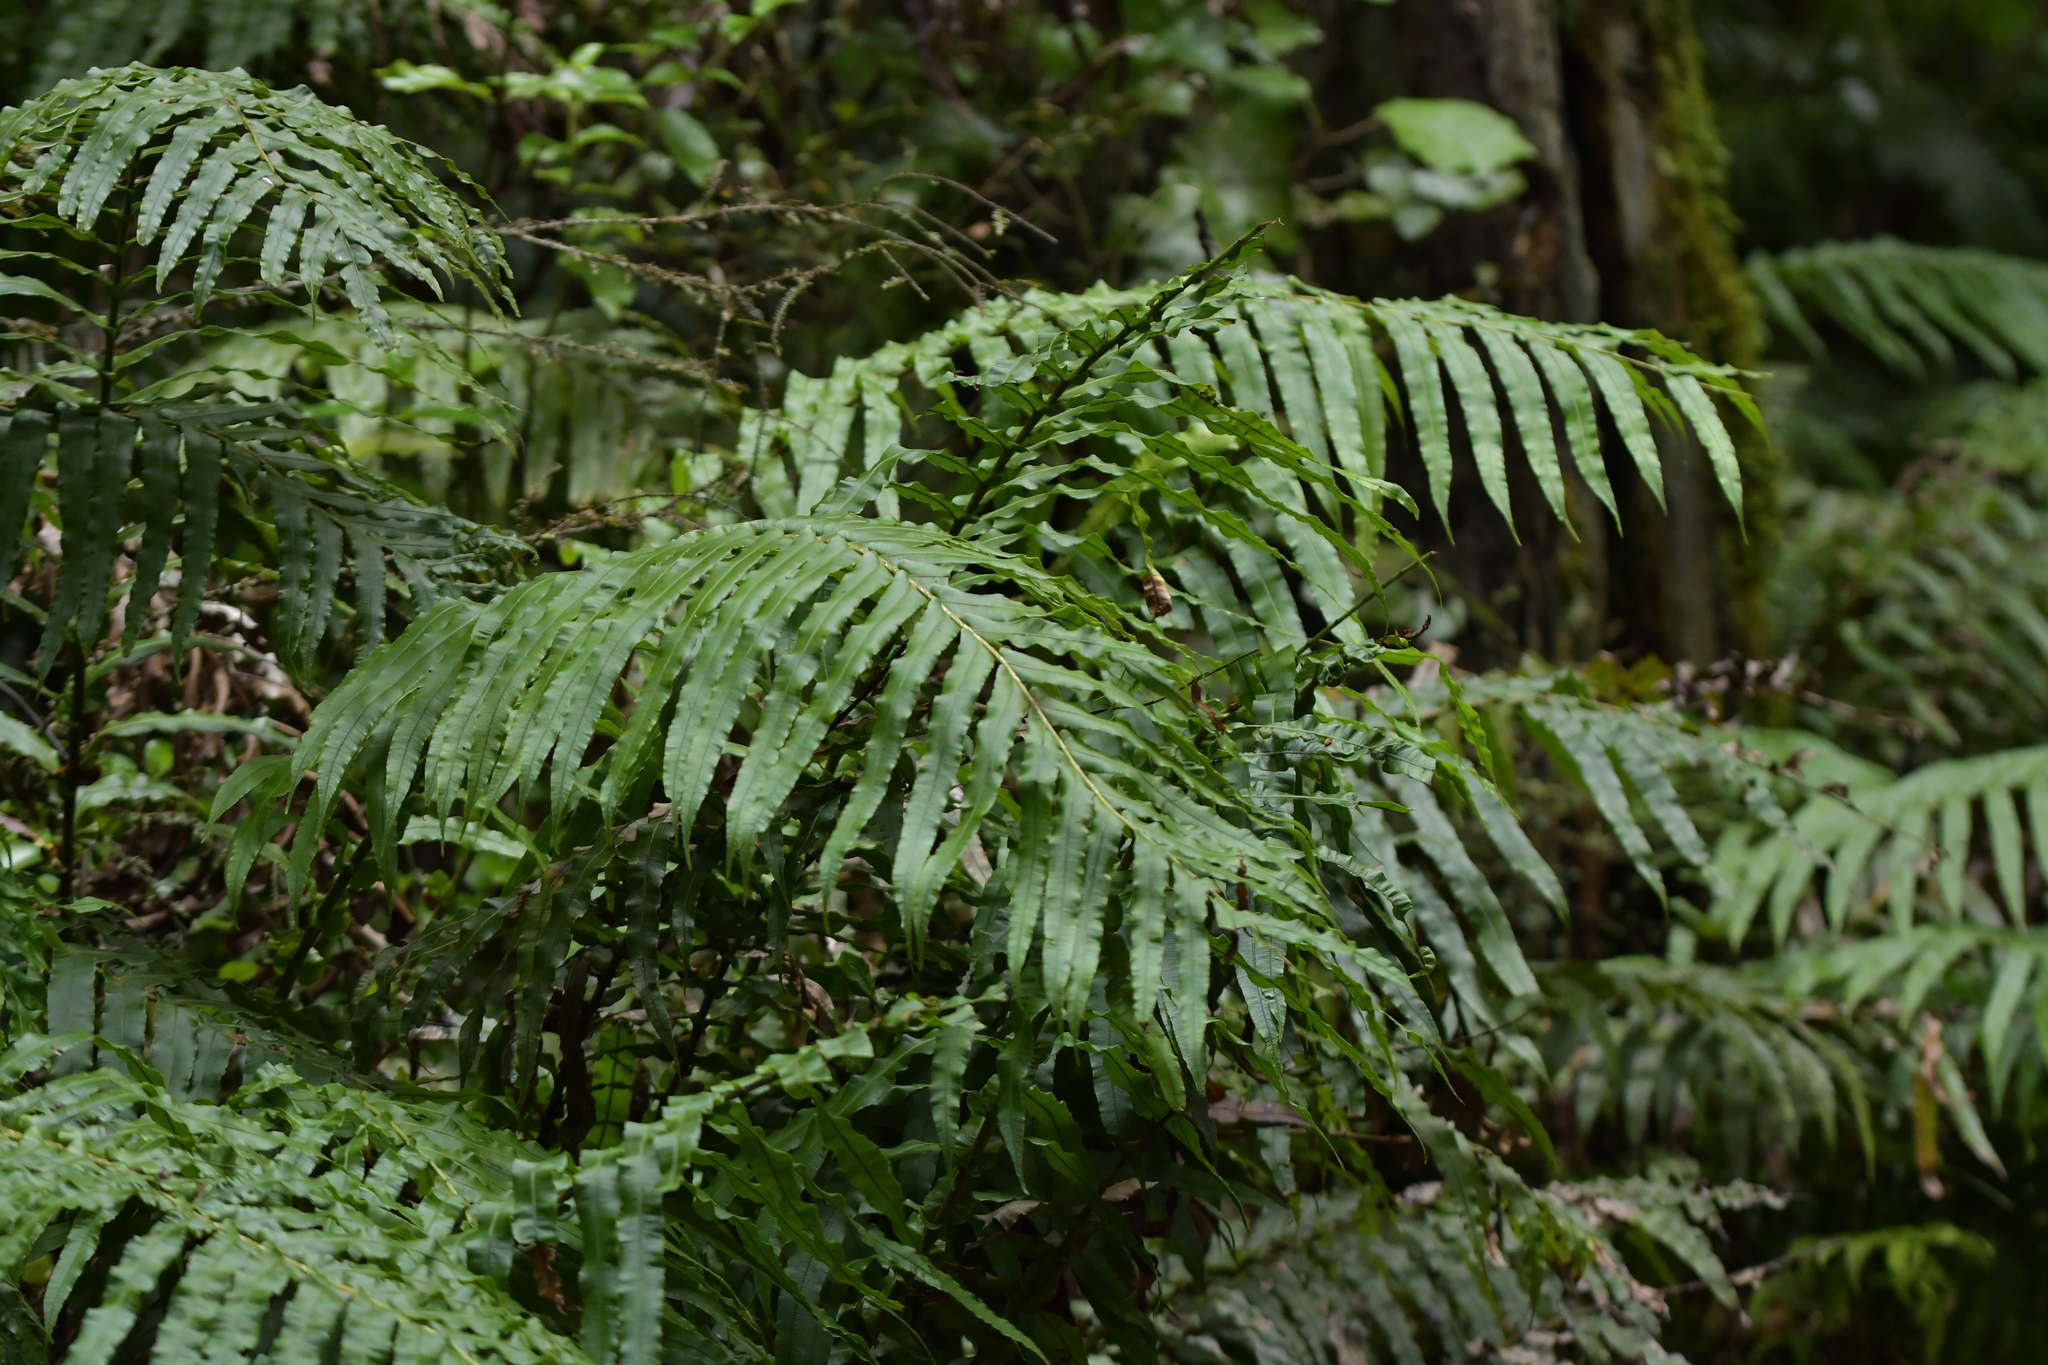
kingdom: Plantae
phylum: Tracheophyta
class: Polypodiopsida
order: Polypodiales
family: Blechnaceae
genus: Parablechnum
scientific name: Parablechnum novae-zelandiae
